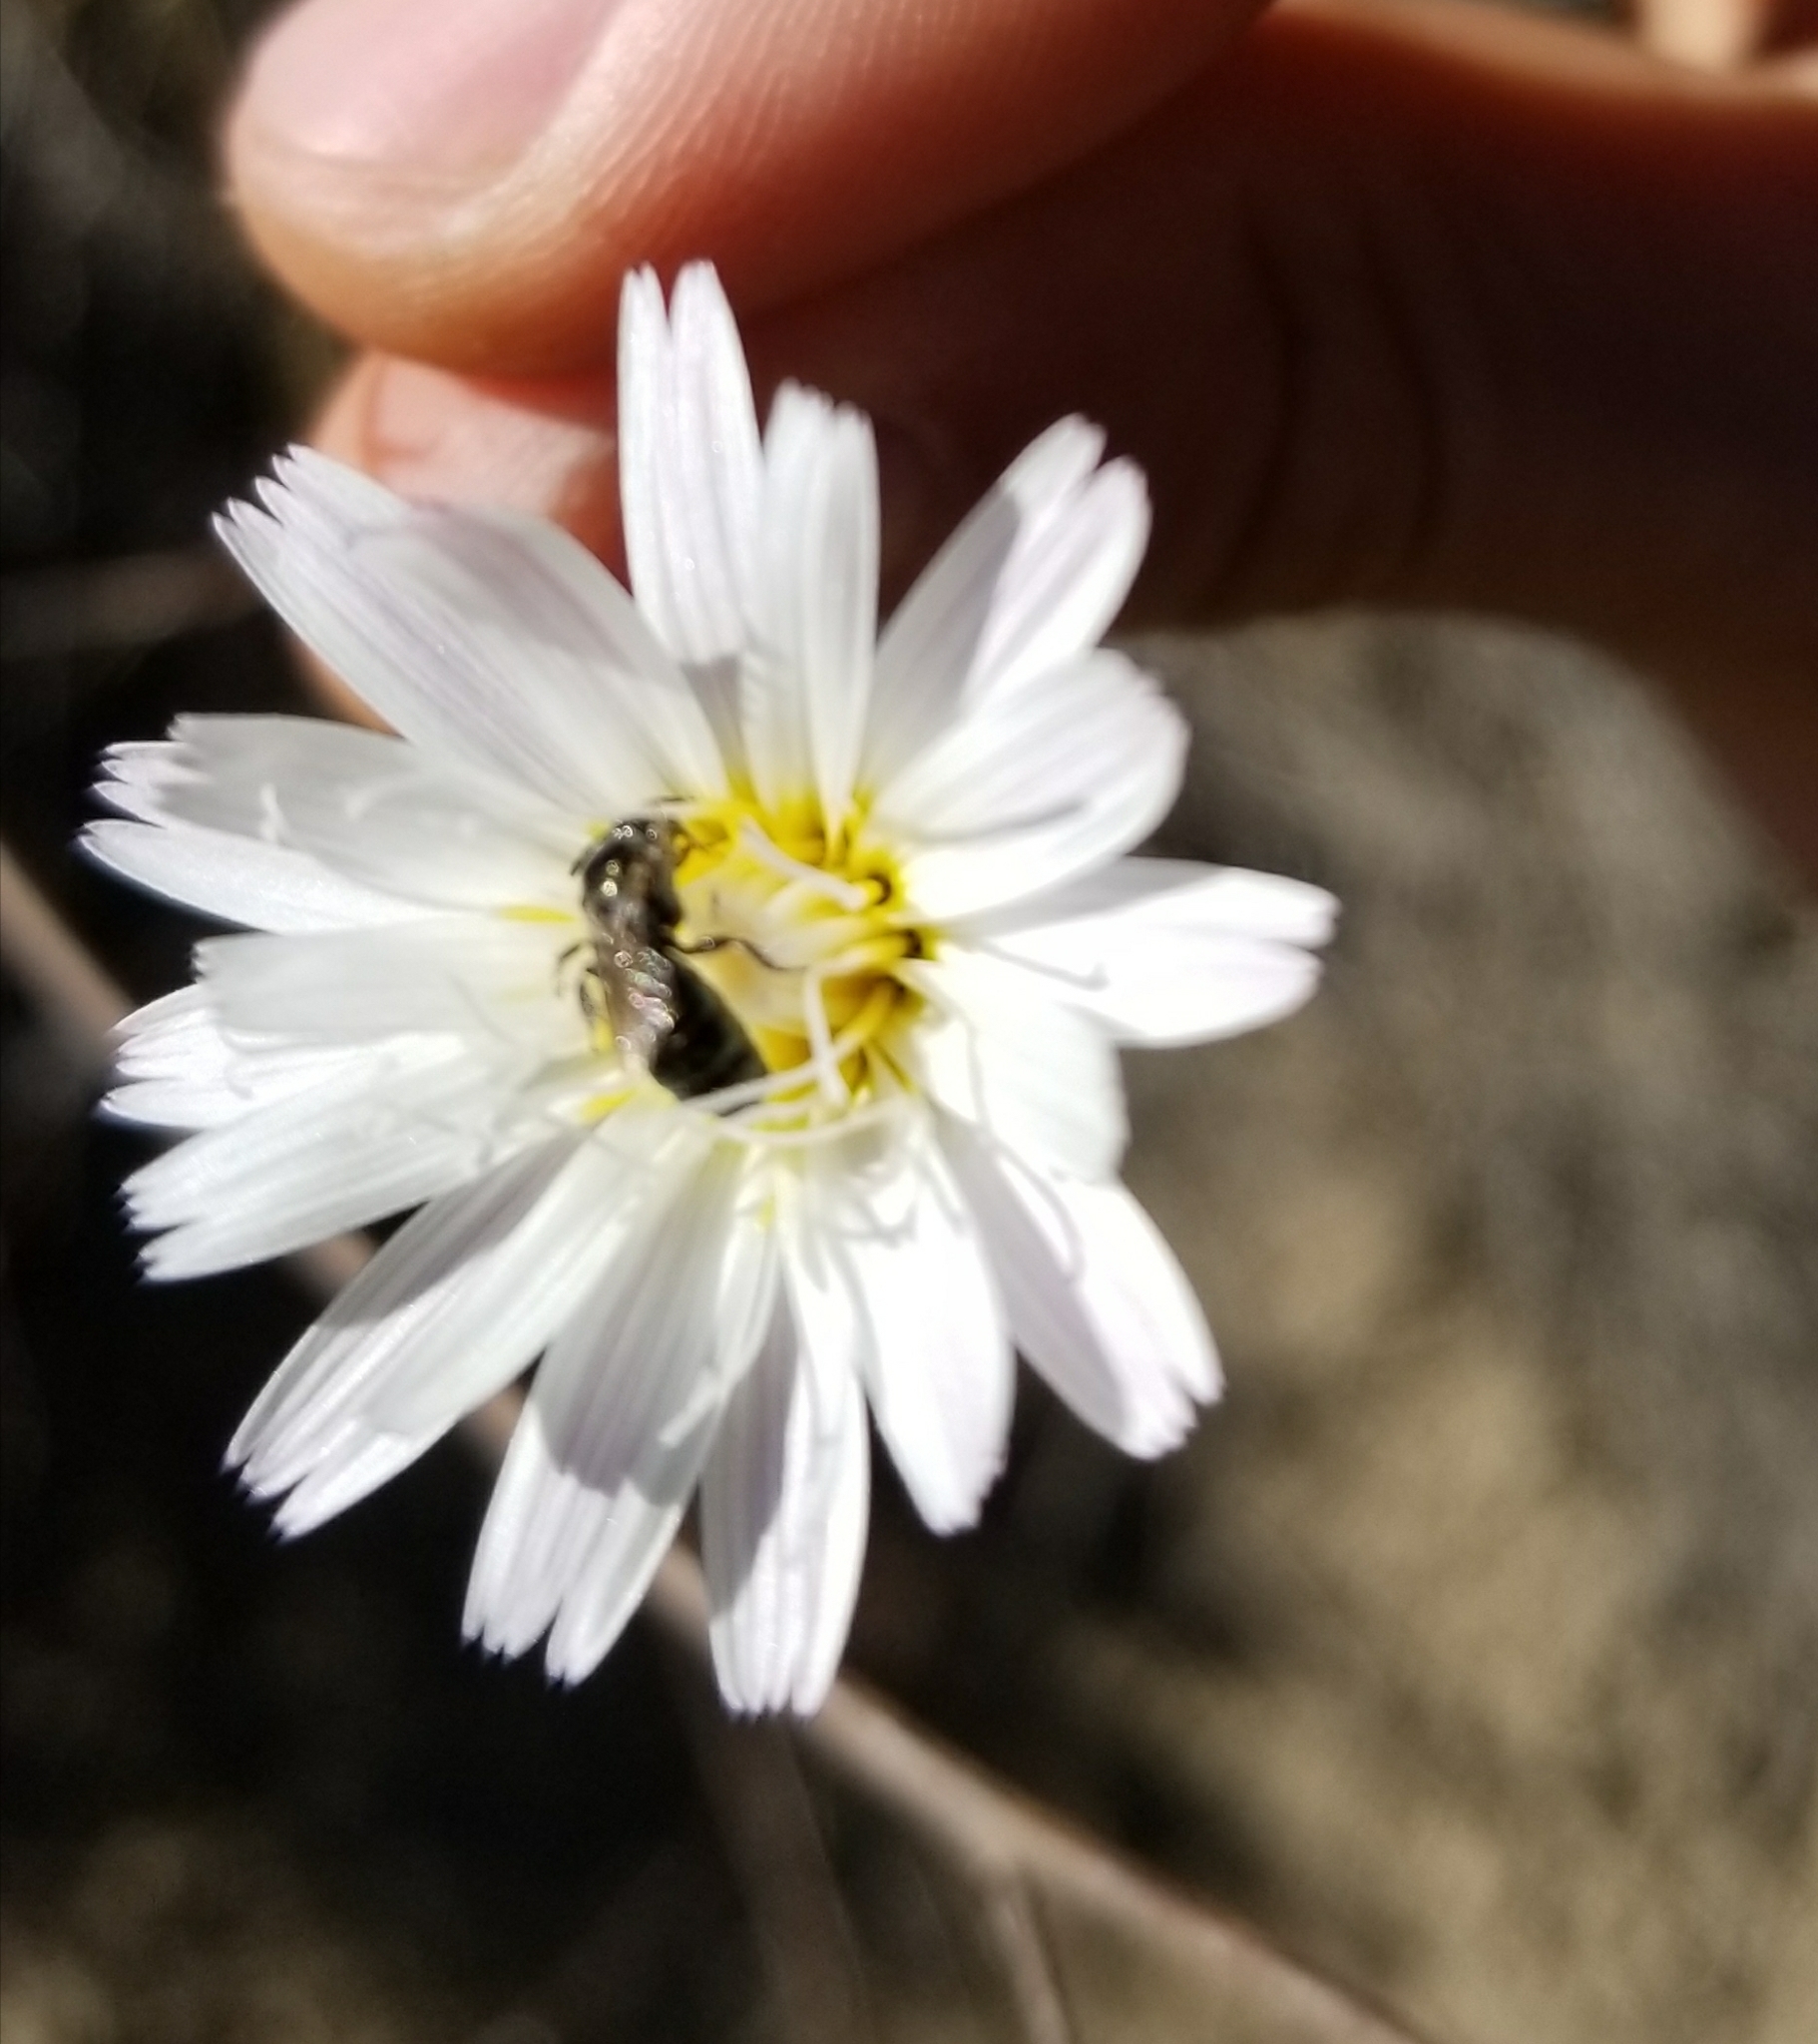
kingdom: Plantae
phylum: Tracheophyta
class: Magnoliopsida
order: Asterales
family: Asteraceae
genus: Malacothrix
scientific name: Malacothrix saxatilis
